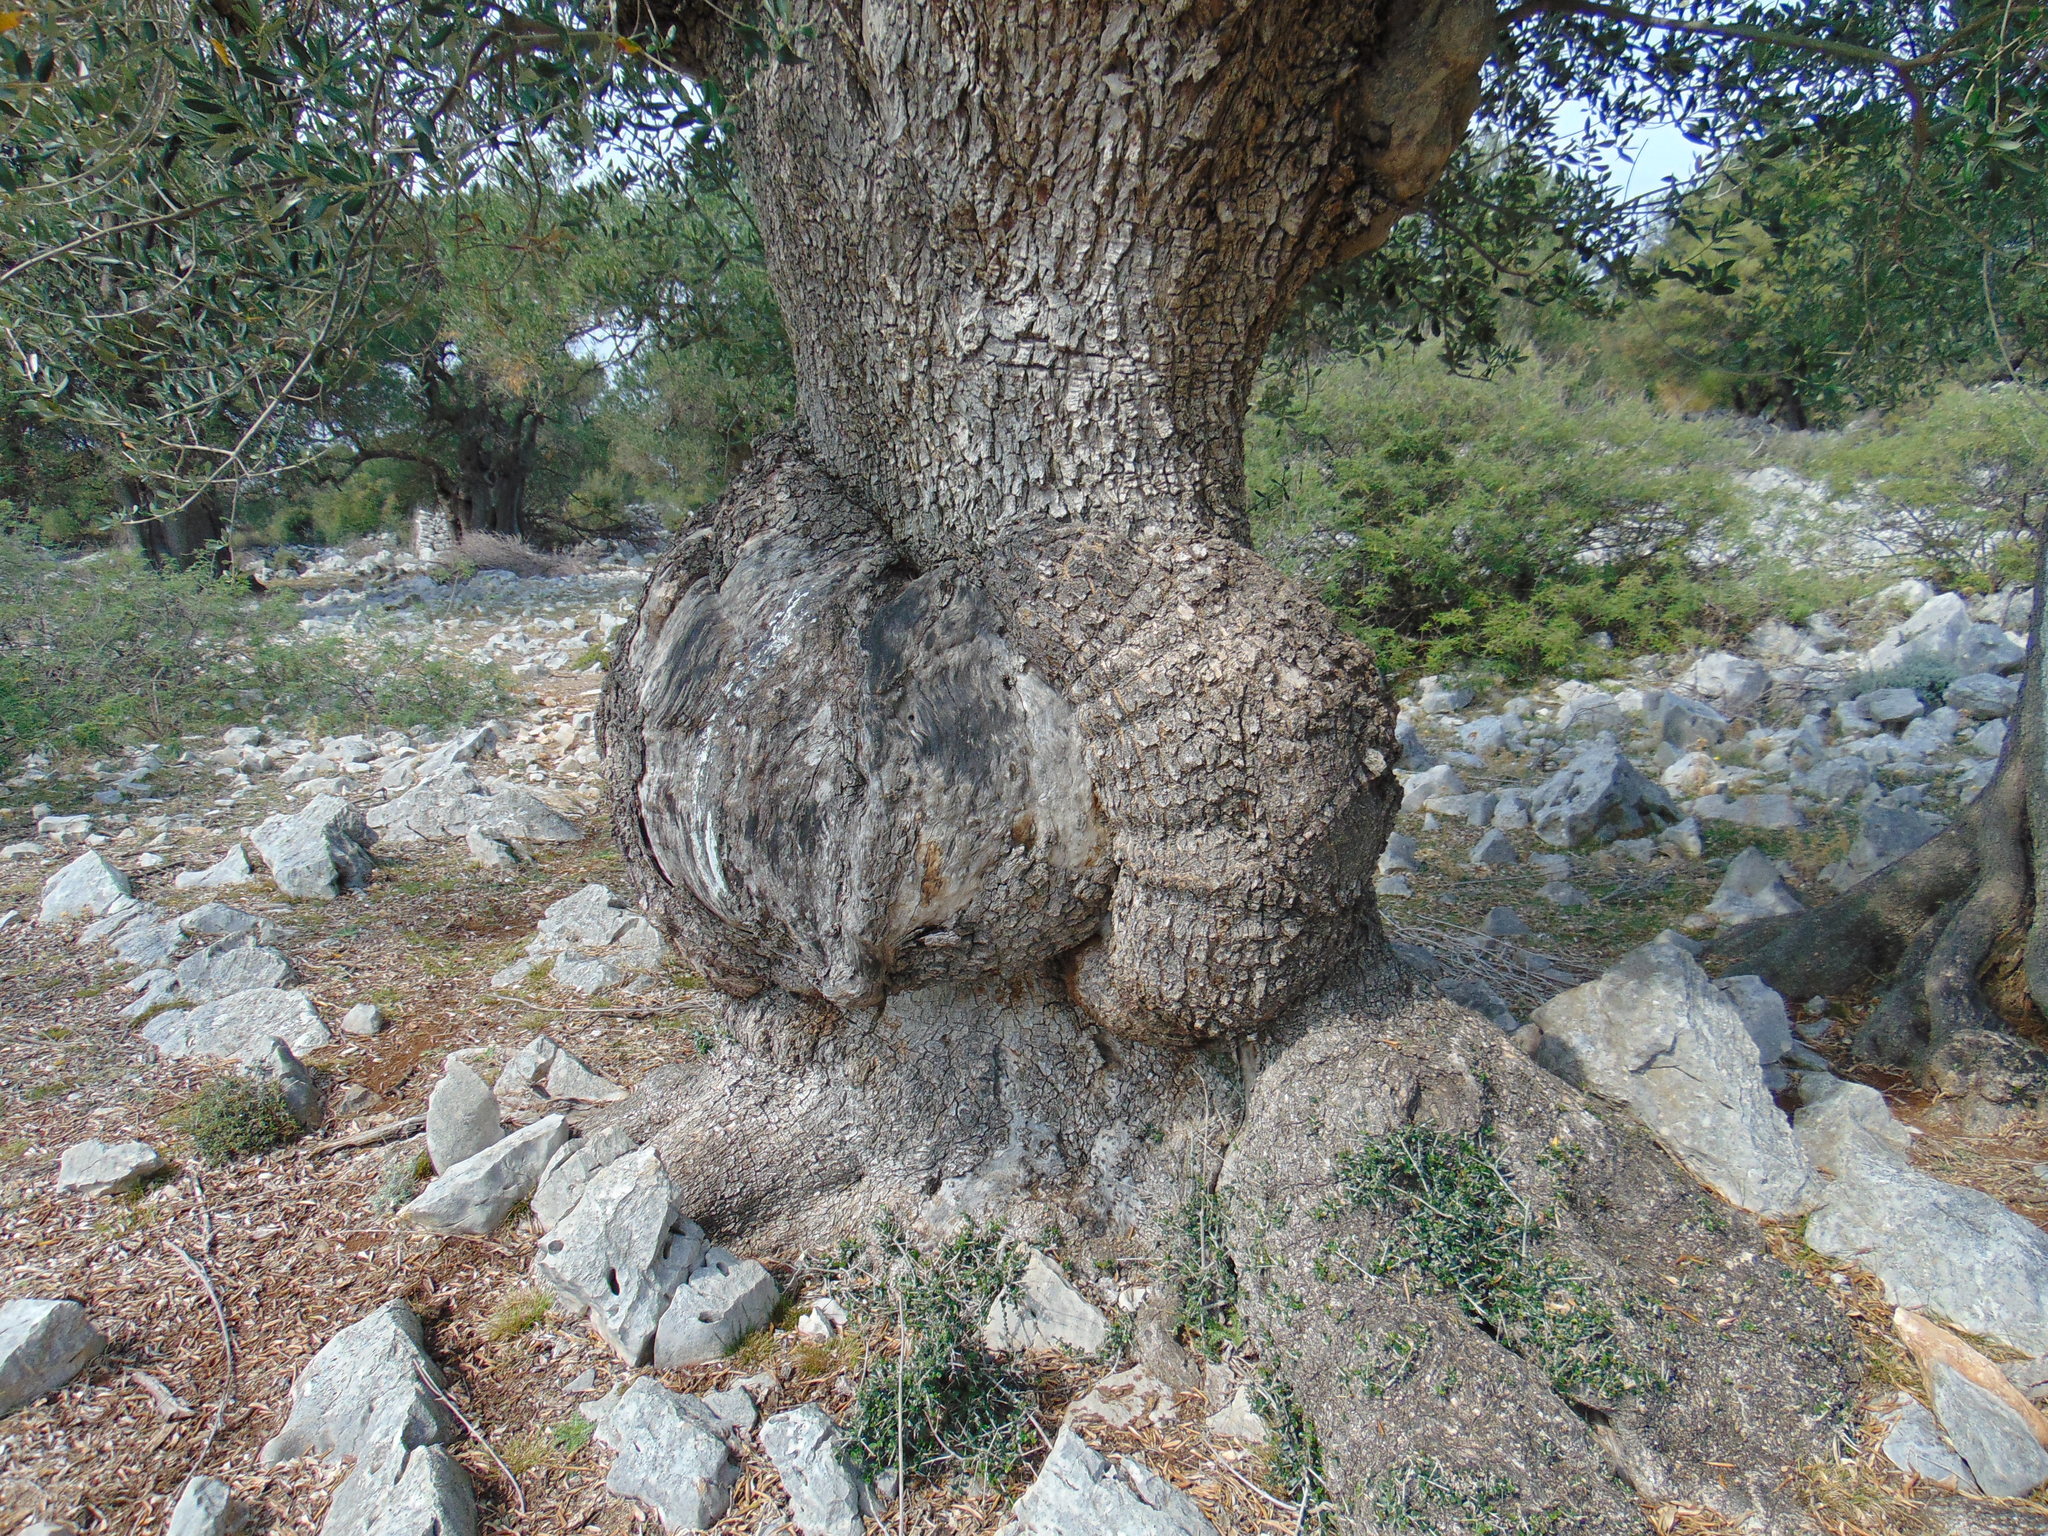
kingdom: Plantae
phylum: Tracheophyta
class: Magnoliopsida
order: Lamiales
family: Oleaceae
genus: Olea
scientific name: Olea europaea
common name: Olive
